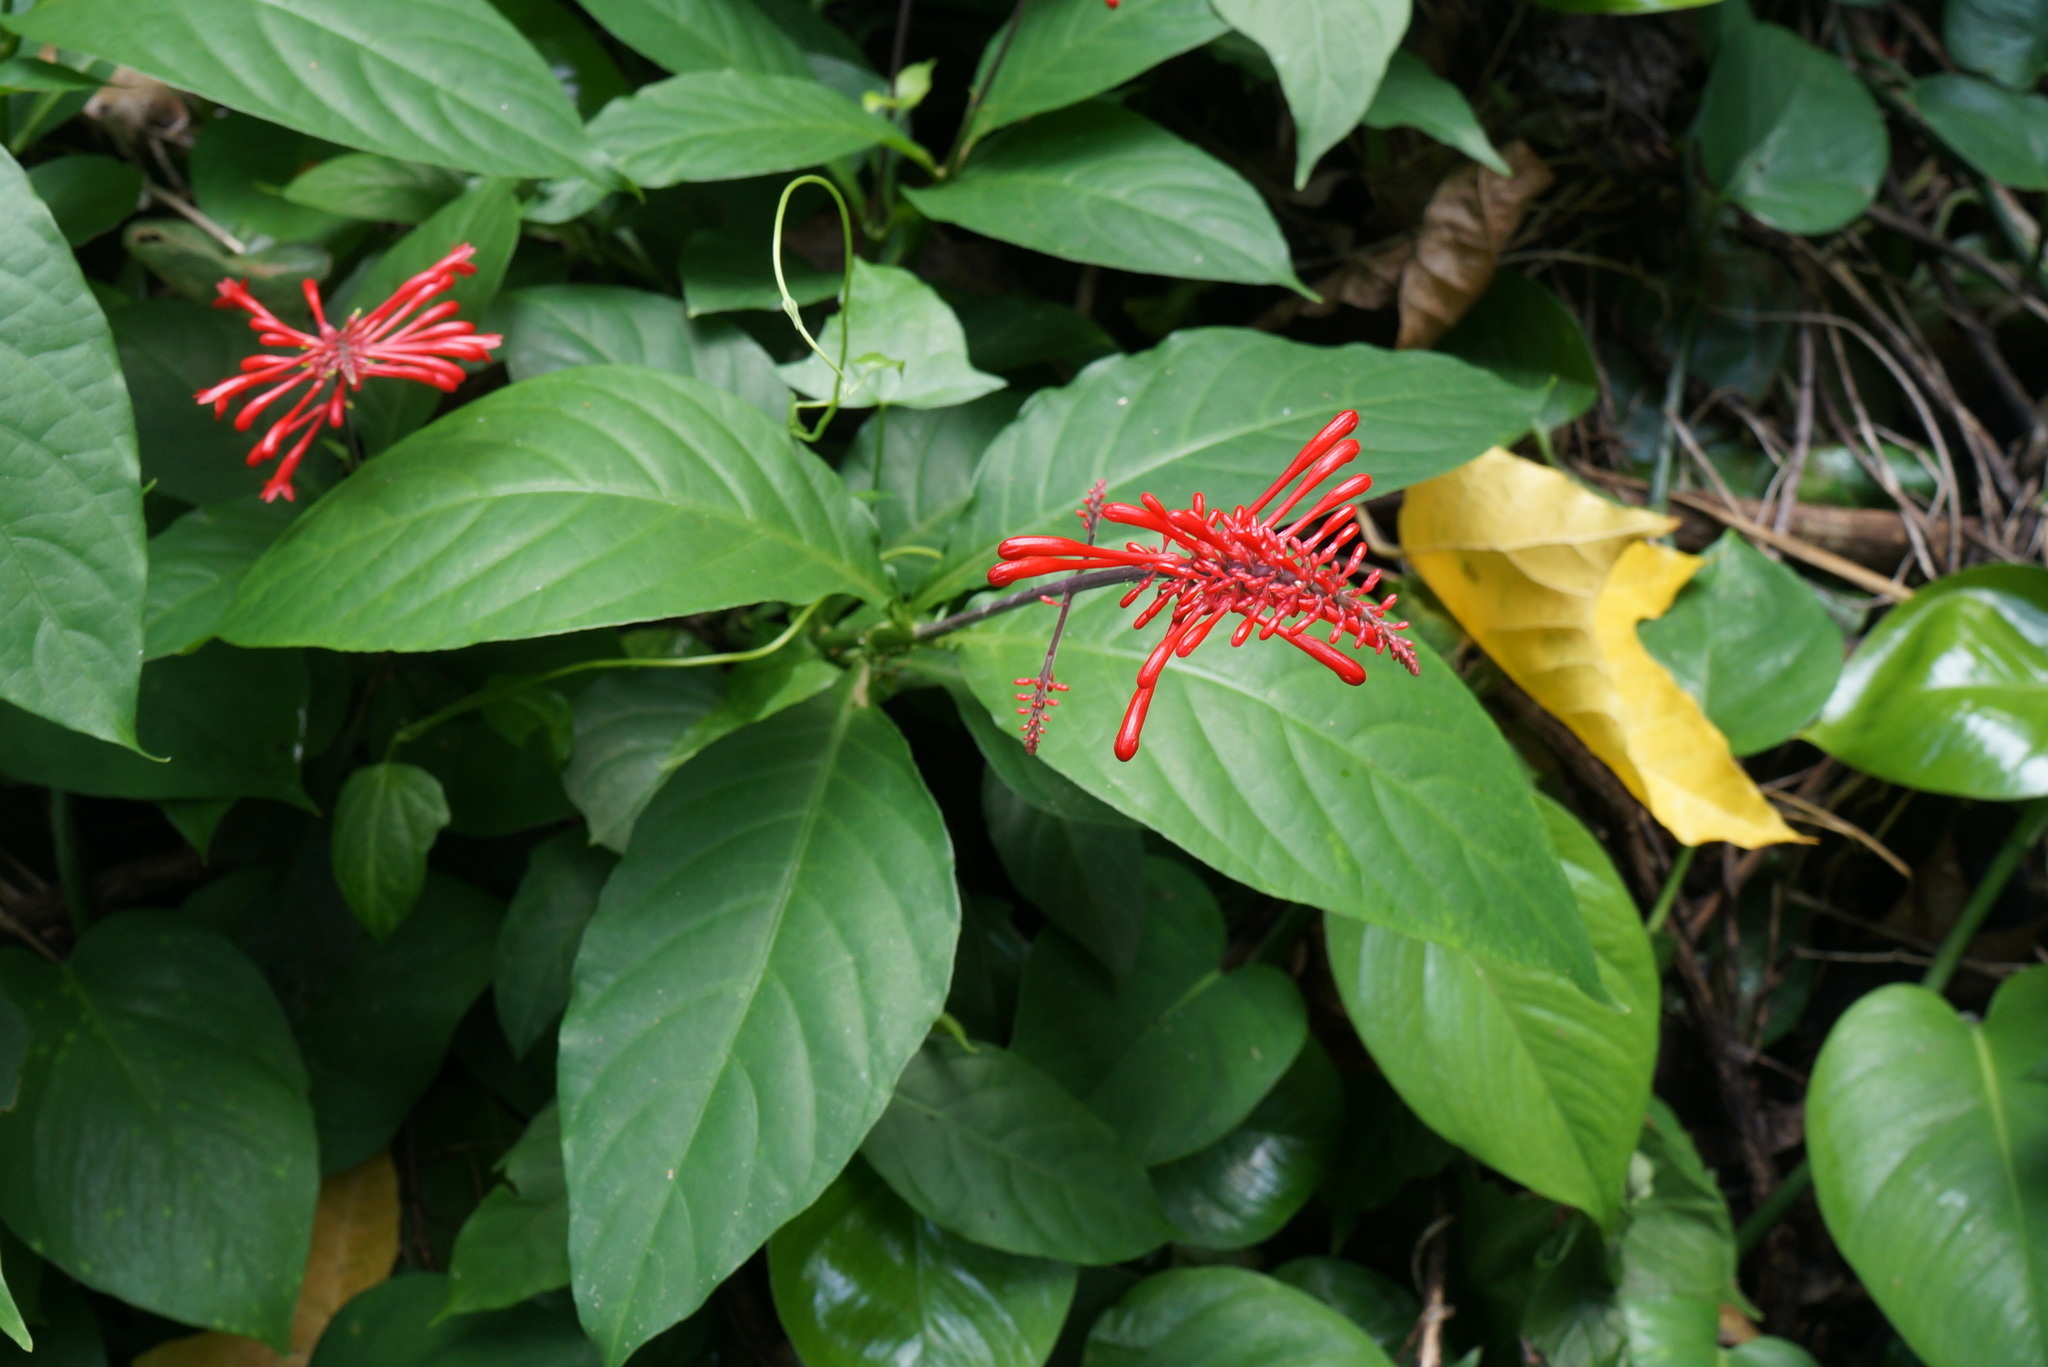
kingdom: Plantae
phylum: Tracheophyta
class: Magnoliopsida
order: Lamiales
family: Acanthaceae
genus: Odontonema
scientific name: Odontonema cuspidatum
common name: Mottled toothedthread
